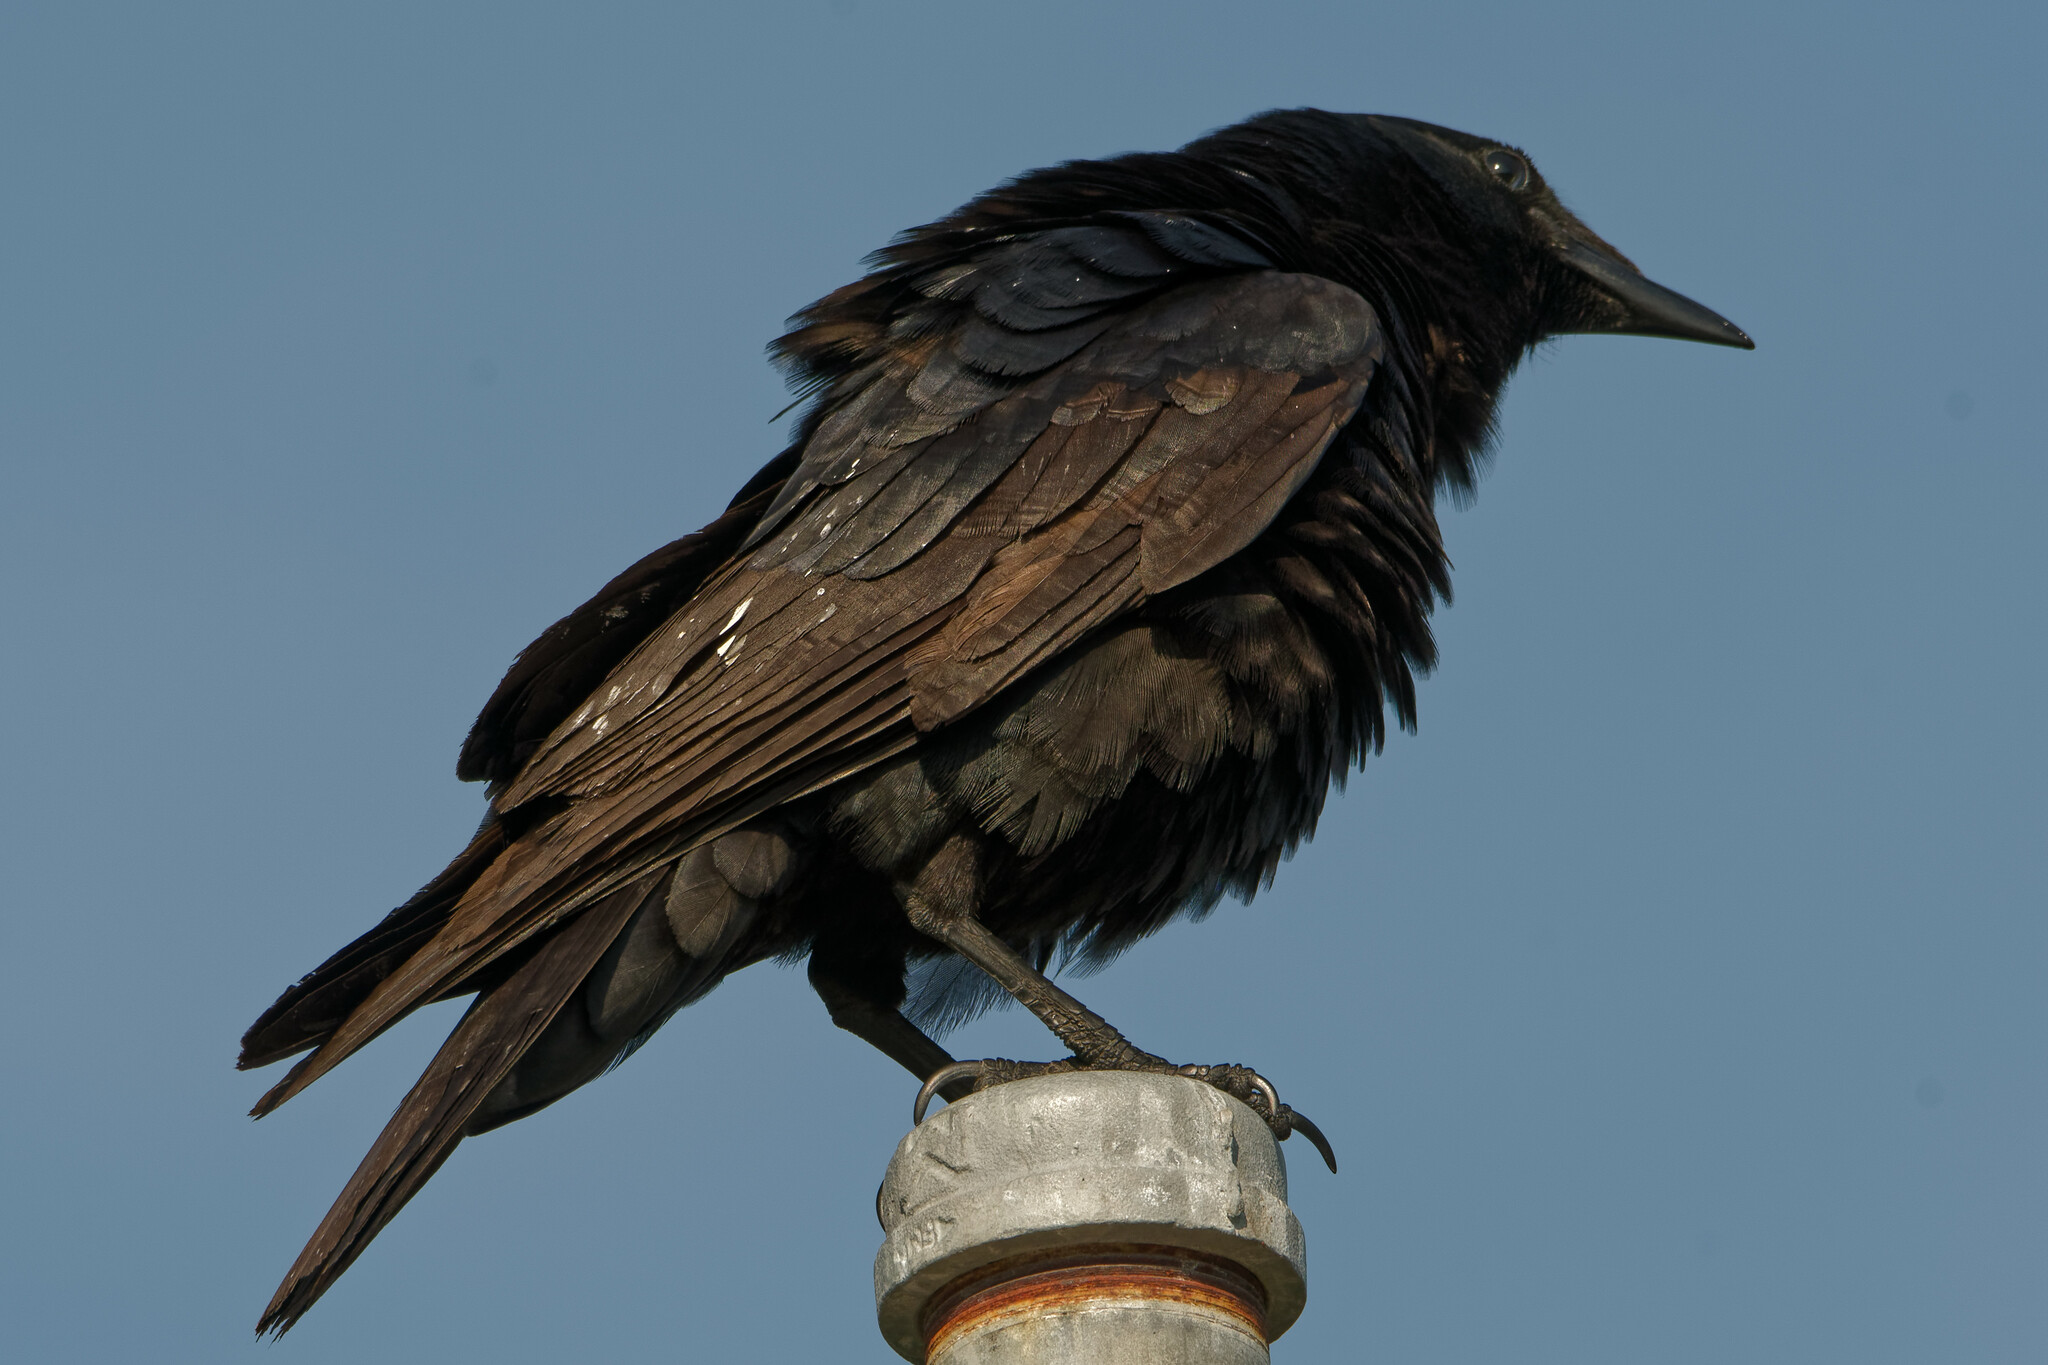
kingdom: Animalia
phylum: Chordata
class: Aves
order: Passeriformes
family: Corvidae
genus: Corvus
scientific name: Corvus
